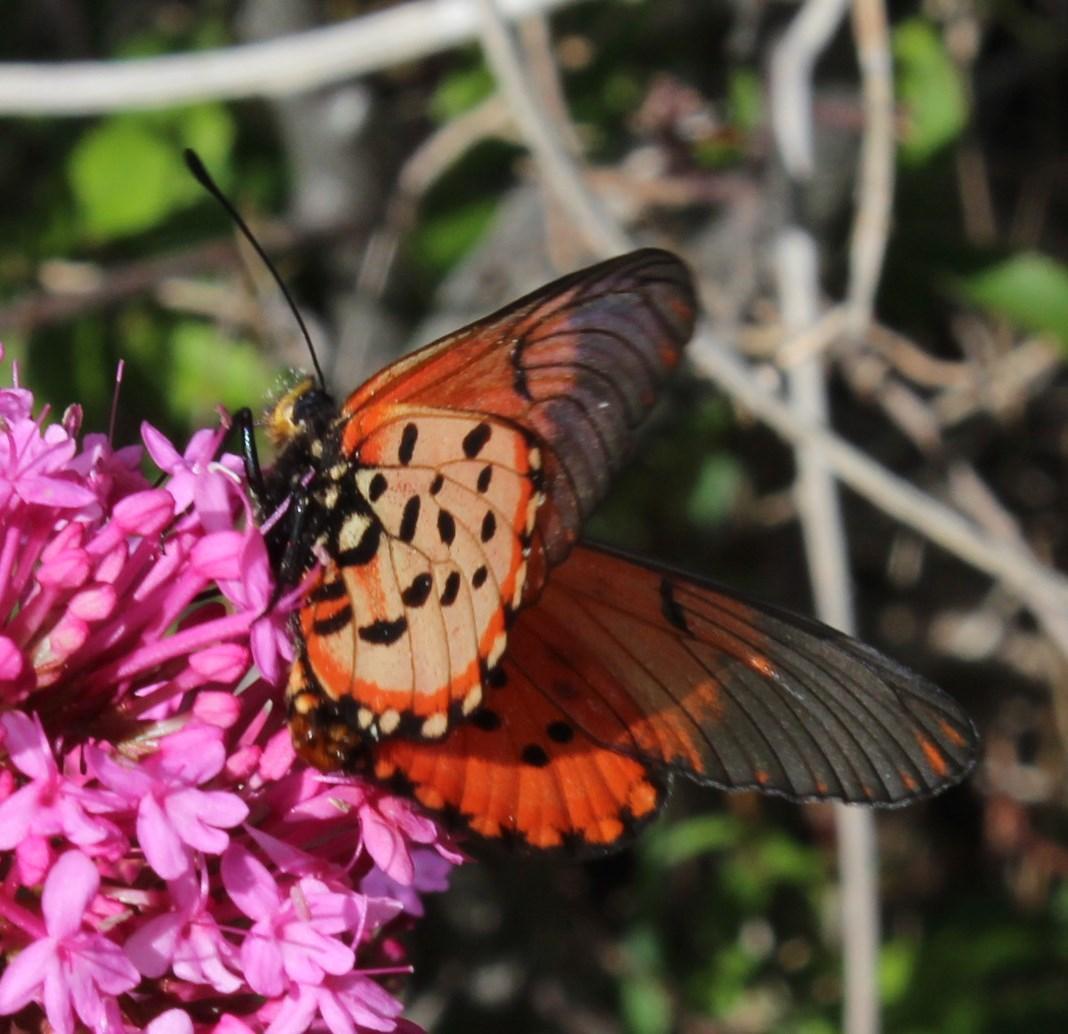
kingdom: Animalia
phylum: Arthropoda
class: Insecta
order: Lepidoptera
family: Nymphalidae
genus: Acraea
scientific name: Acraea horta
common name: Garden acraea
